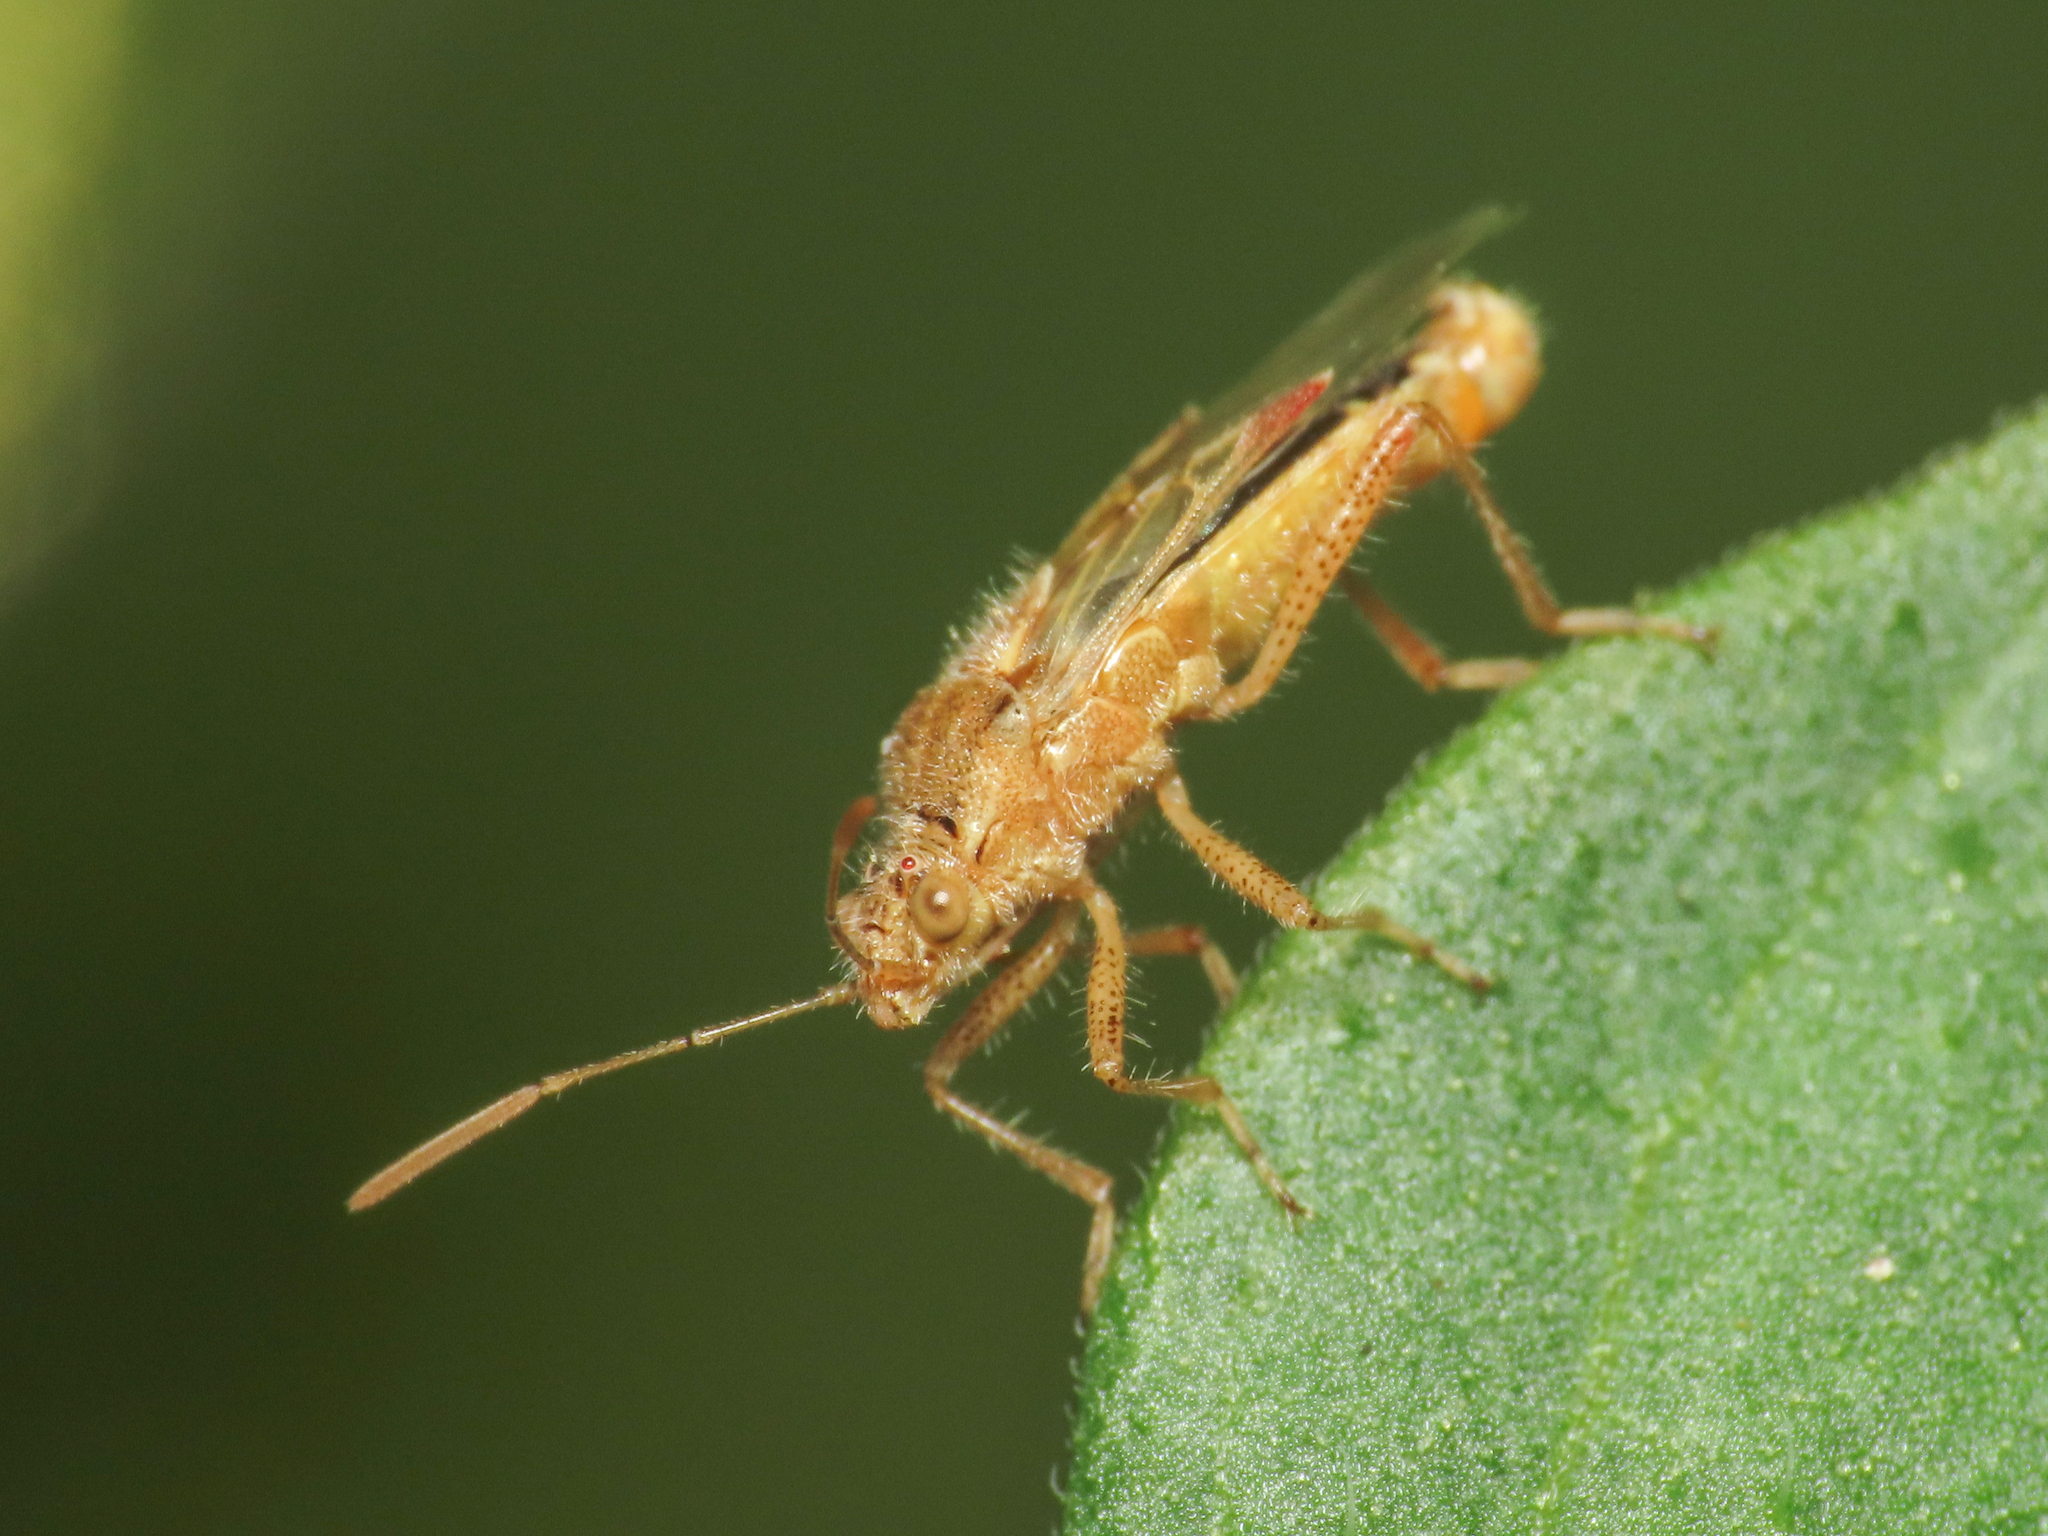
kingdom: Animalia
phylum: Arthropoda
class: Insecta
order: Hemiptera
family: Rhopalidae
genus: Liorhyssus
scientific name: Liorhyssus hyalinus
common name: Scentless plant bug
